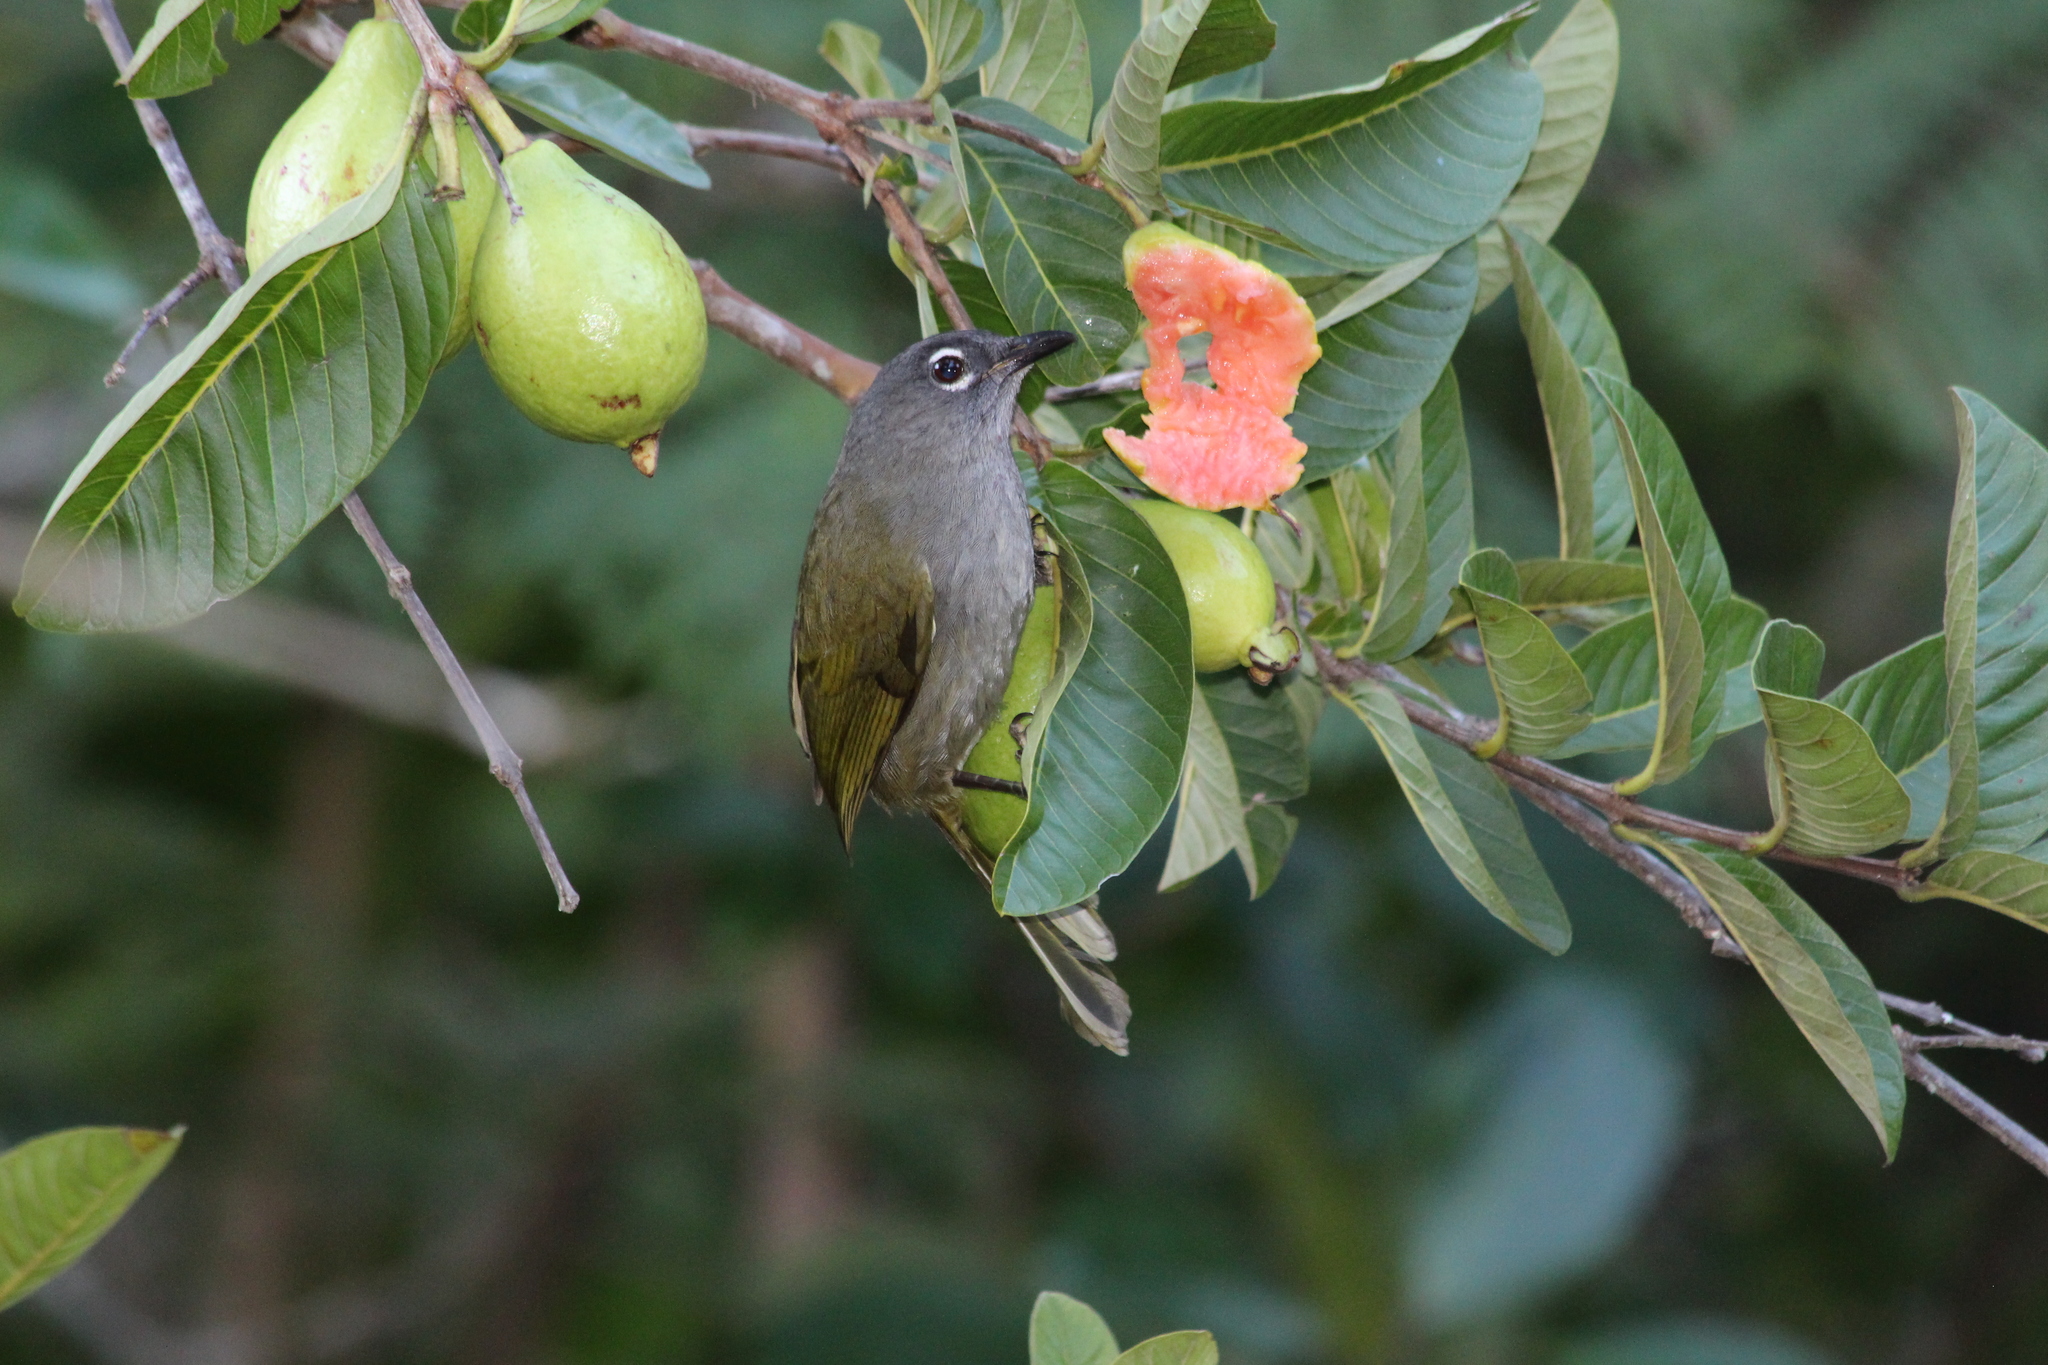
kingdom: Animalia
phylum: Chordata
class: Aves
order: Passeriformes
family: Pycnonotidae
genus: Arizelocichla
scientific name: Arizelocichla fusciceps
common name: Black-browed greenbul
